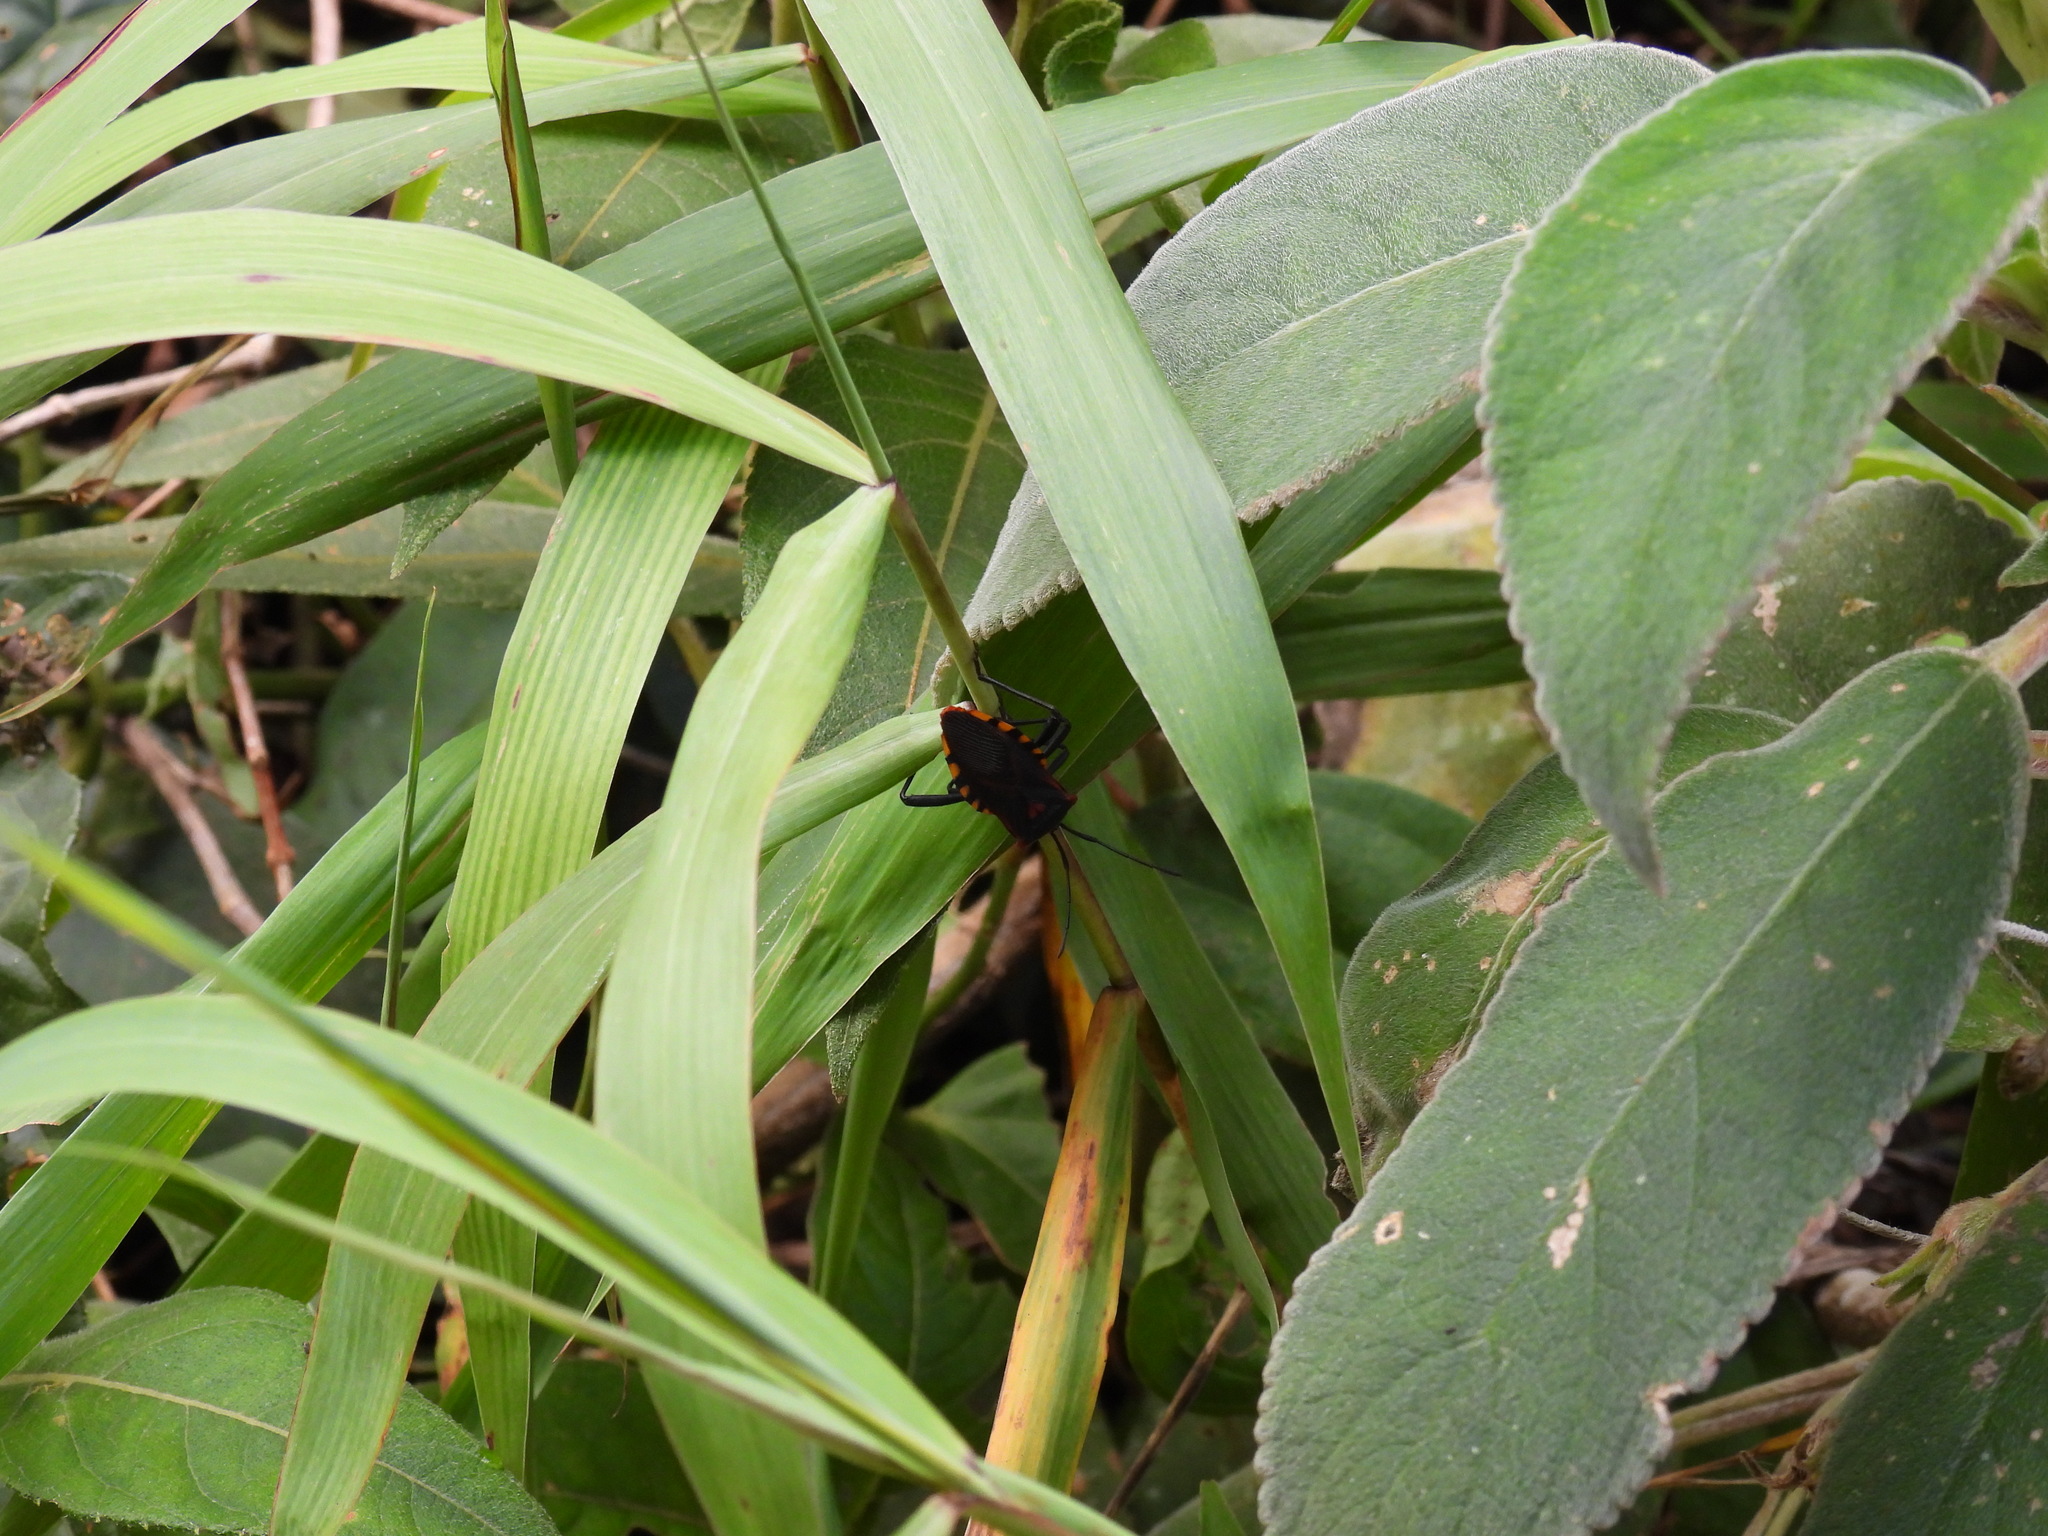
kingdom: Animalia
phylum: Arthropoda
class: Insecta
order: Hemiptera
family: Coreidae
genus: Piezogaster
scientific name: Piezogaster rubropictus
